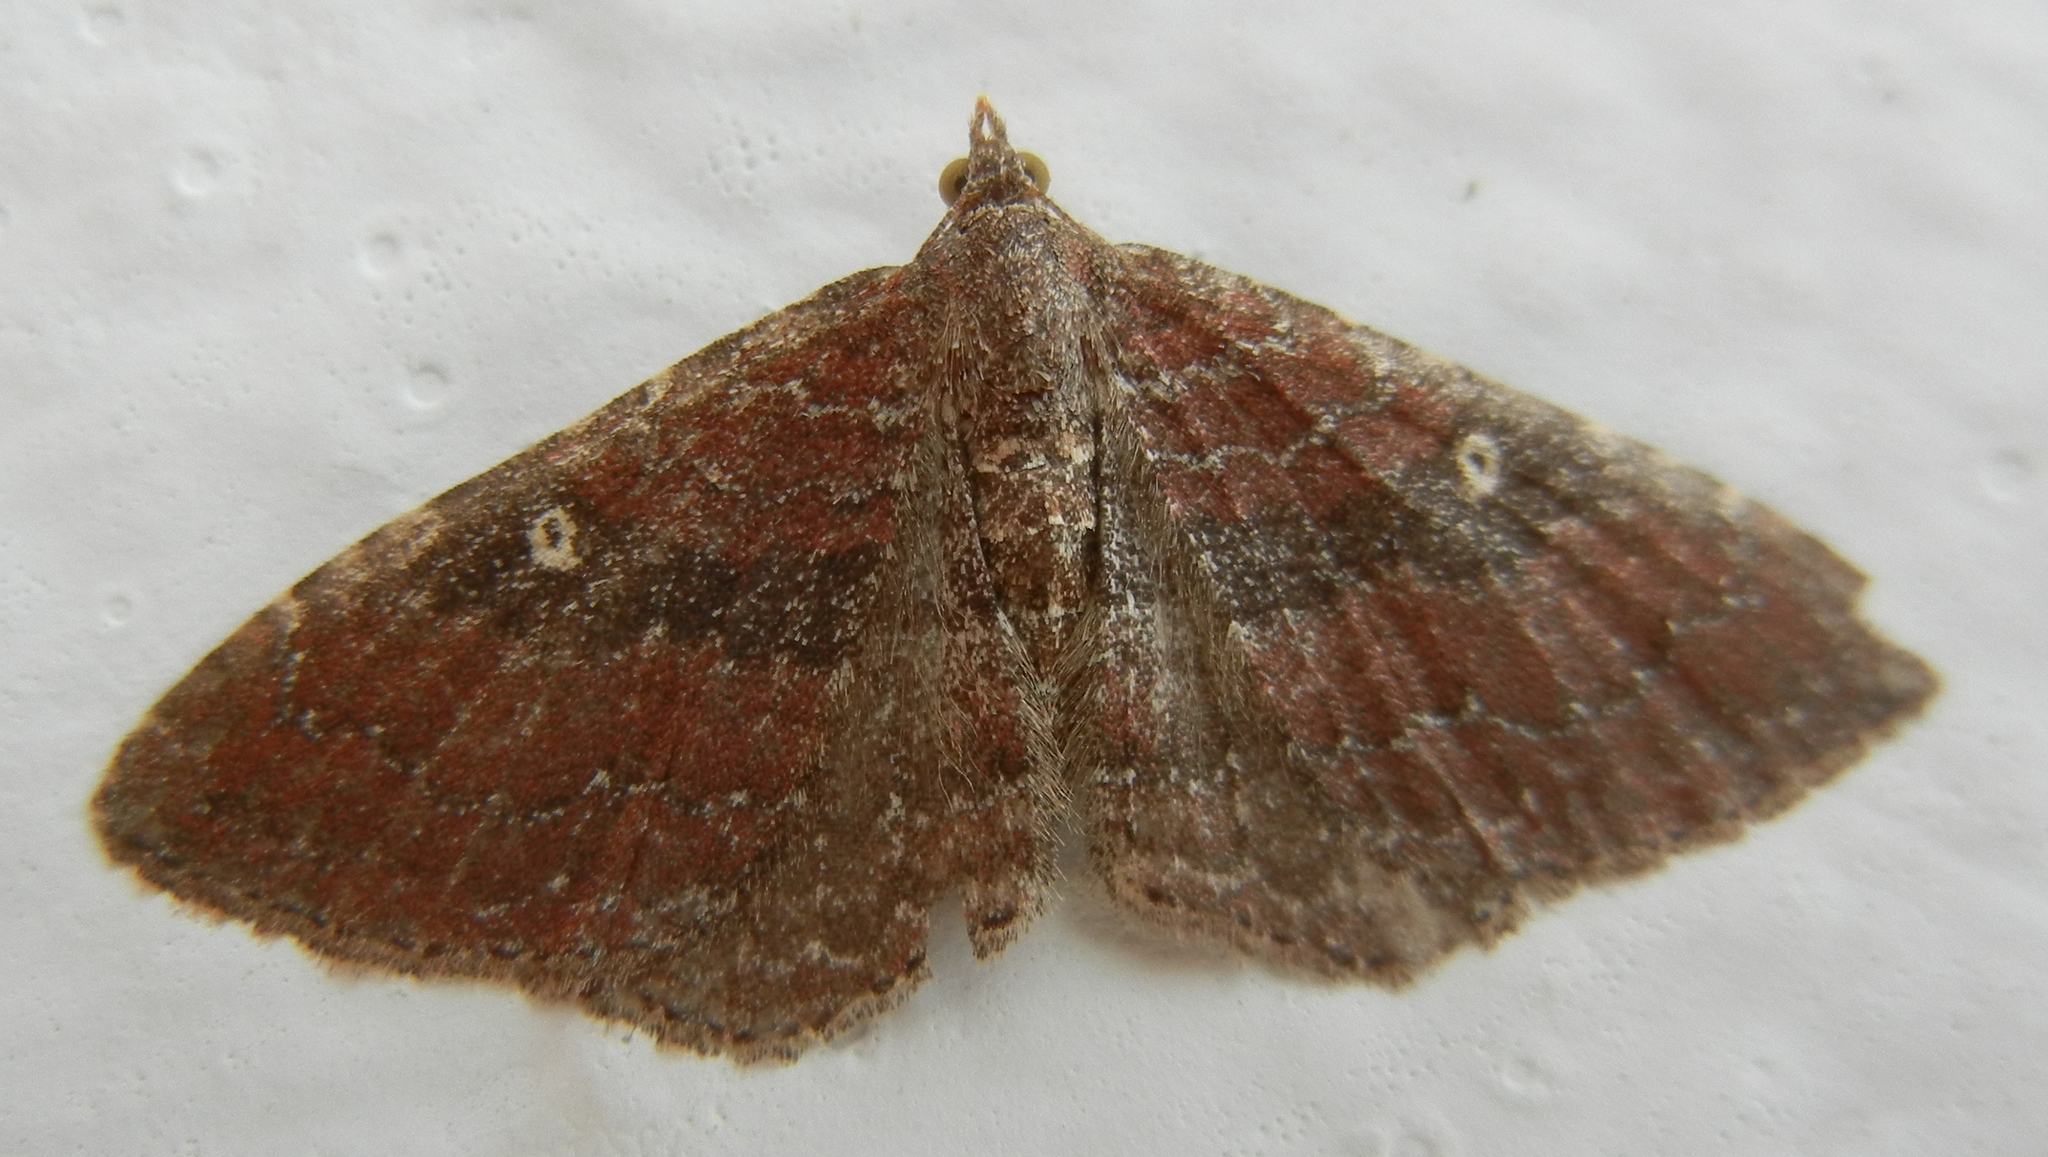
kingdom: Animalia
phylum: Arthropoda
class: Insecta
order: Lepidoptera
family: Geometridae
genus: Orthonama
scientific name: Orthonama obstipata
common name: The gem
